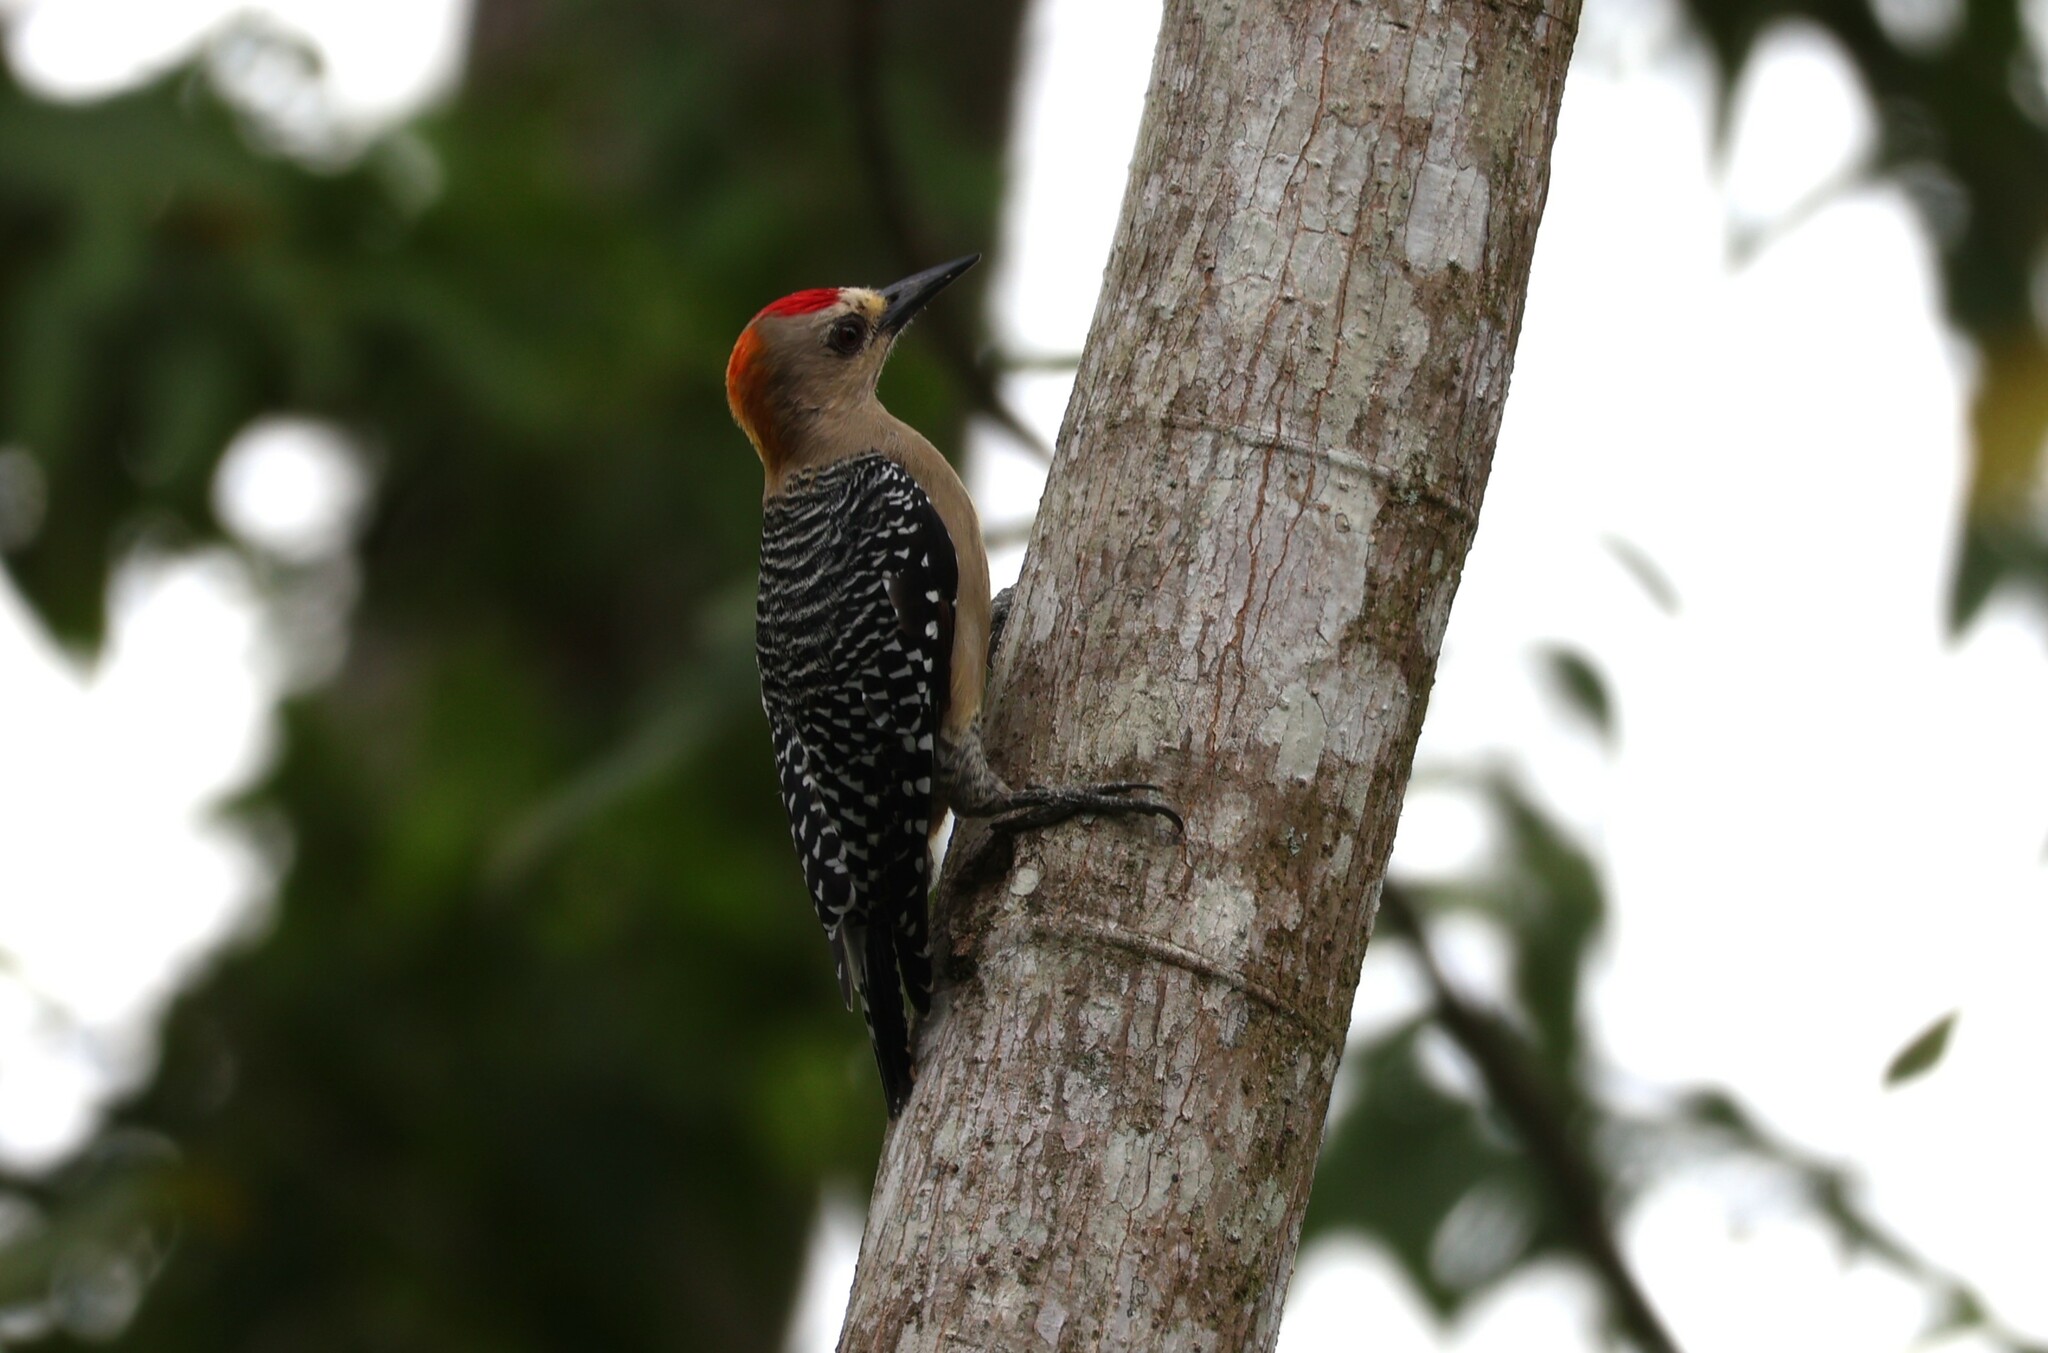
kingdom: Animalia
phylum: Chordata
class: Aves
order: Piciformes
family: Picidae
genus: Melanerpes
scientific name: Melanerpes hoffmannii
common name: Hoffmann's woodpecker
